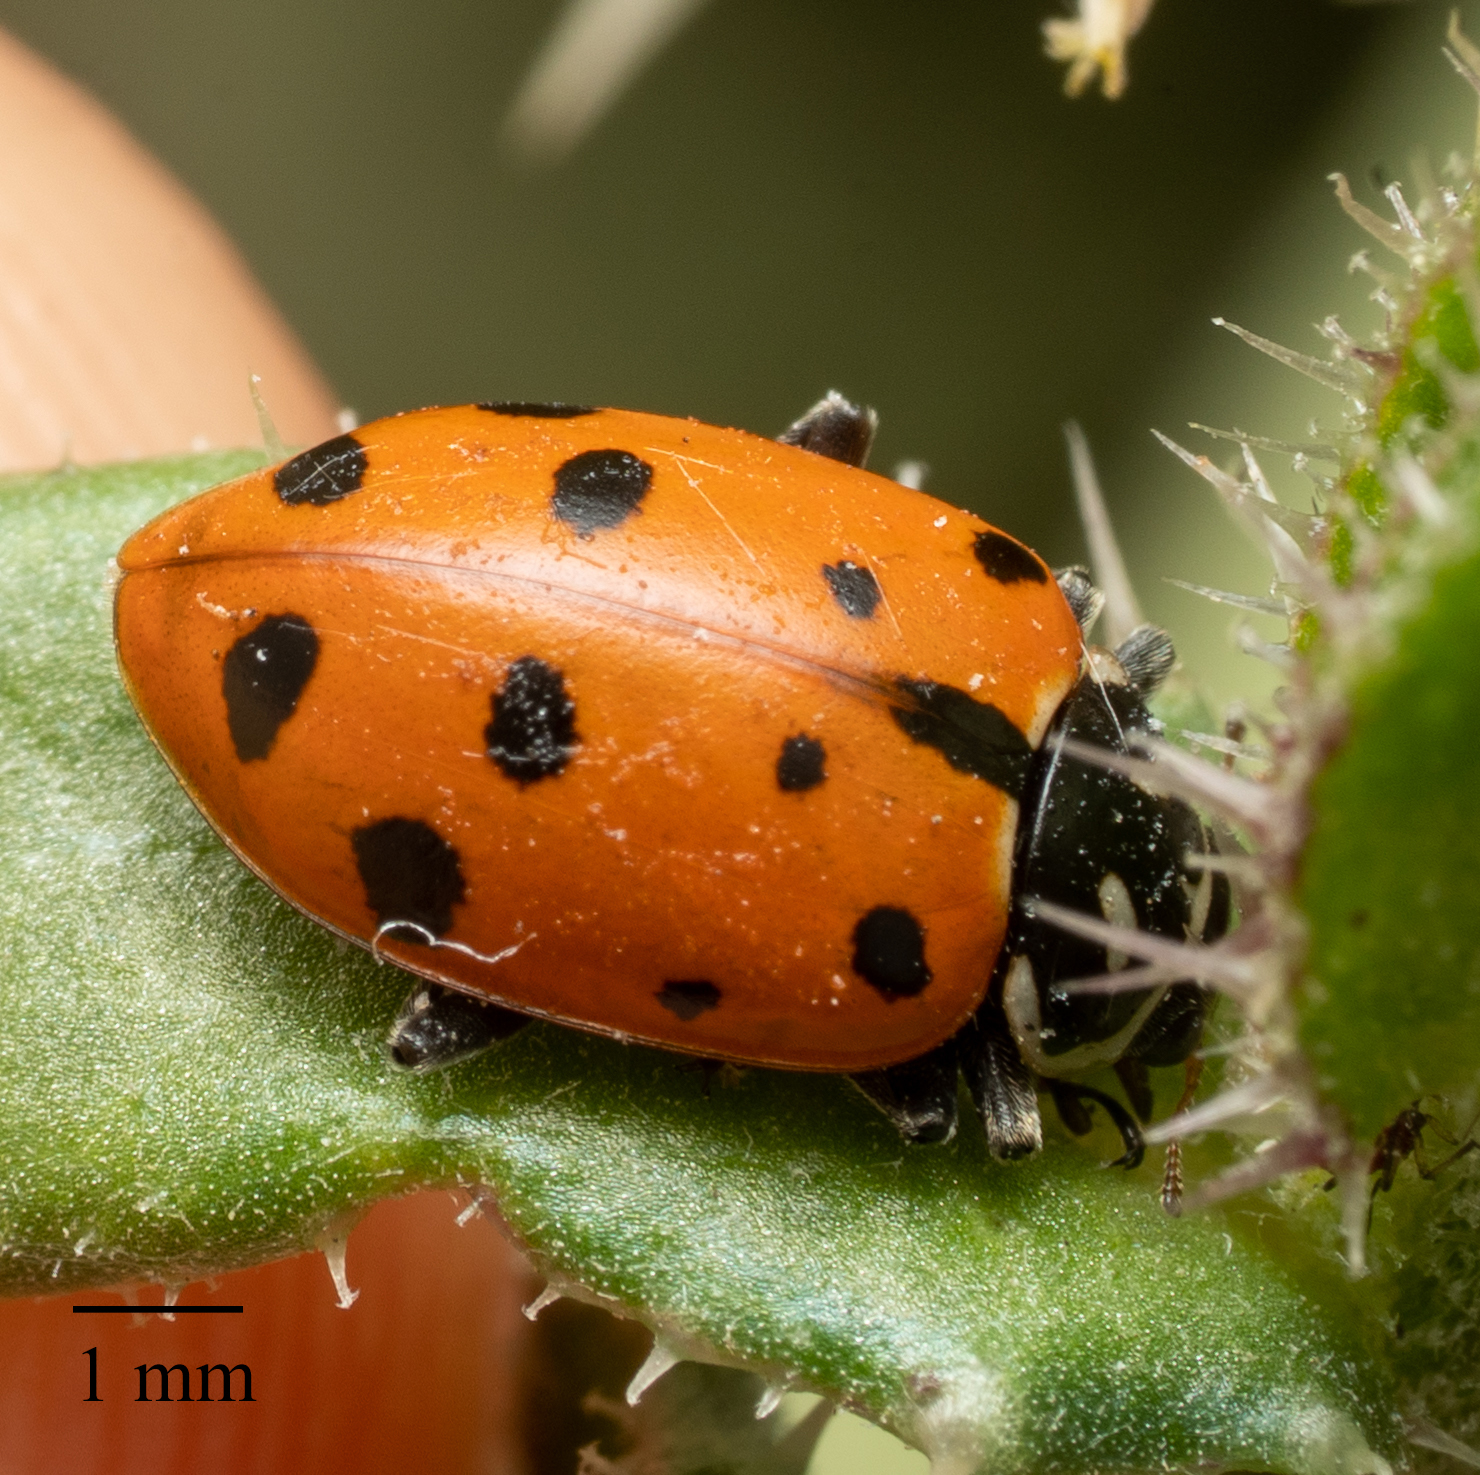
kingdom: Animalia
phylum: Arthropoda
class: Insecta
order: Coleoptera
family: Coccinellidae
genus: Hippodamia
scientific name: Hippodamia convergens
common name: Convergent lady beetle
